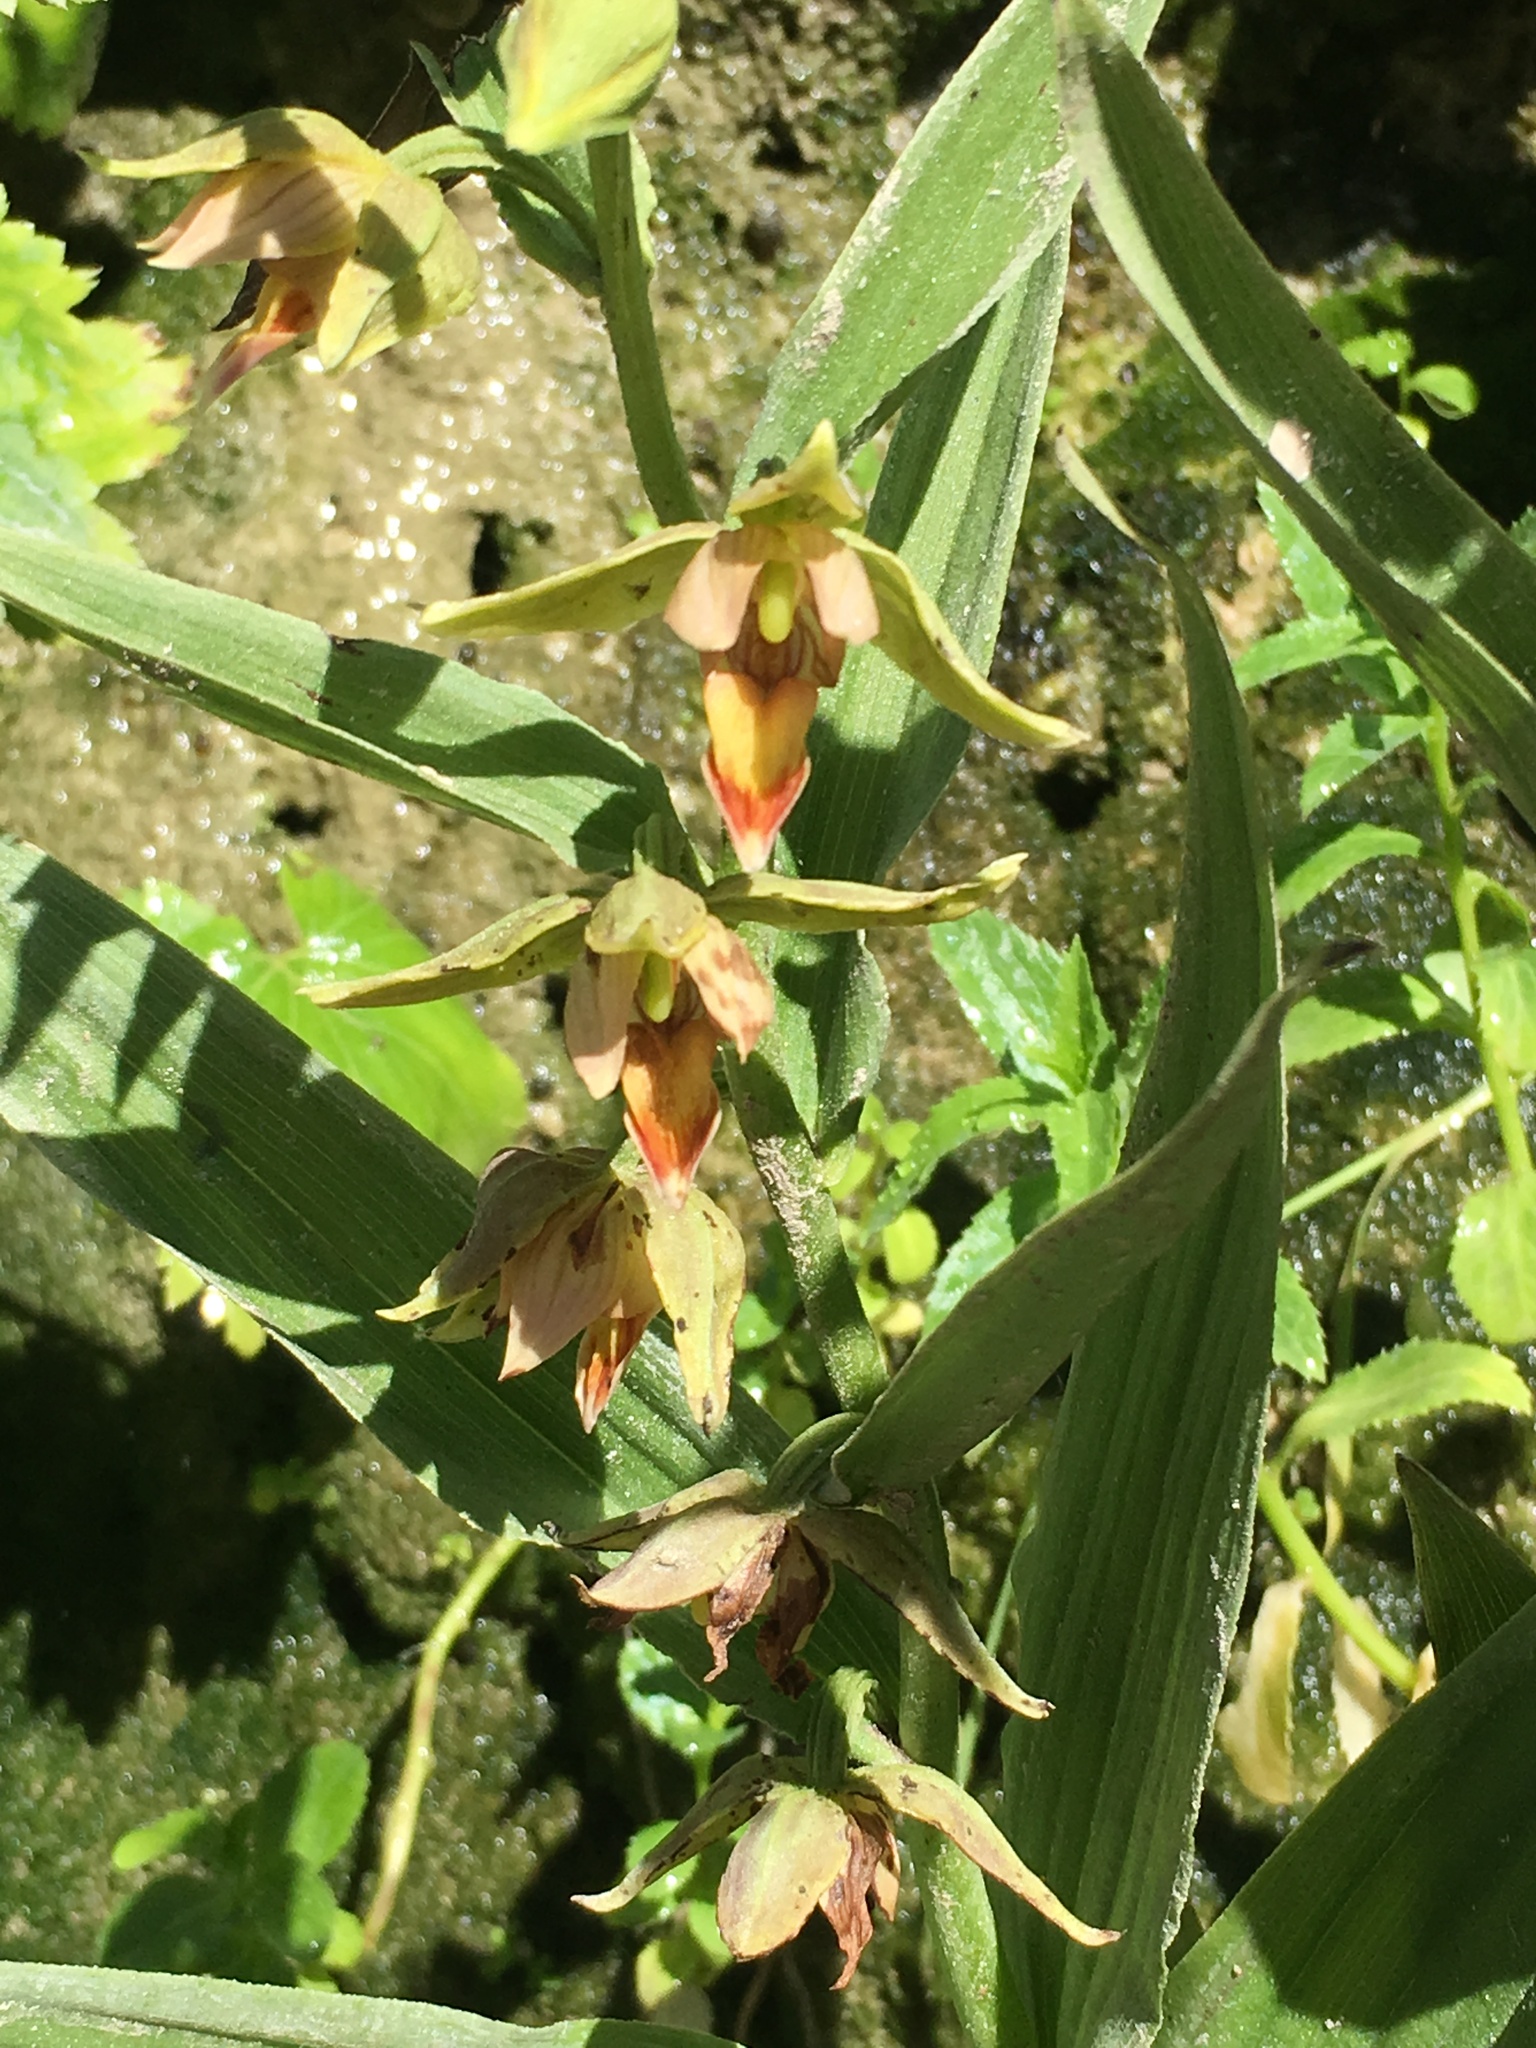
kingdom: Plantae
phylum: Tracheophyta
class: Liliopsida
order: Asparagales
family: Orchidaceae
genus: Epipactis
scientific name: Epipactis gigantea
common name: Chatterbox
